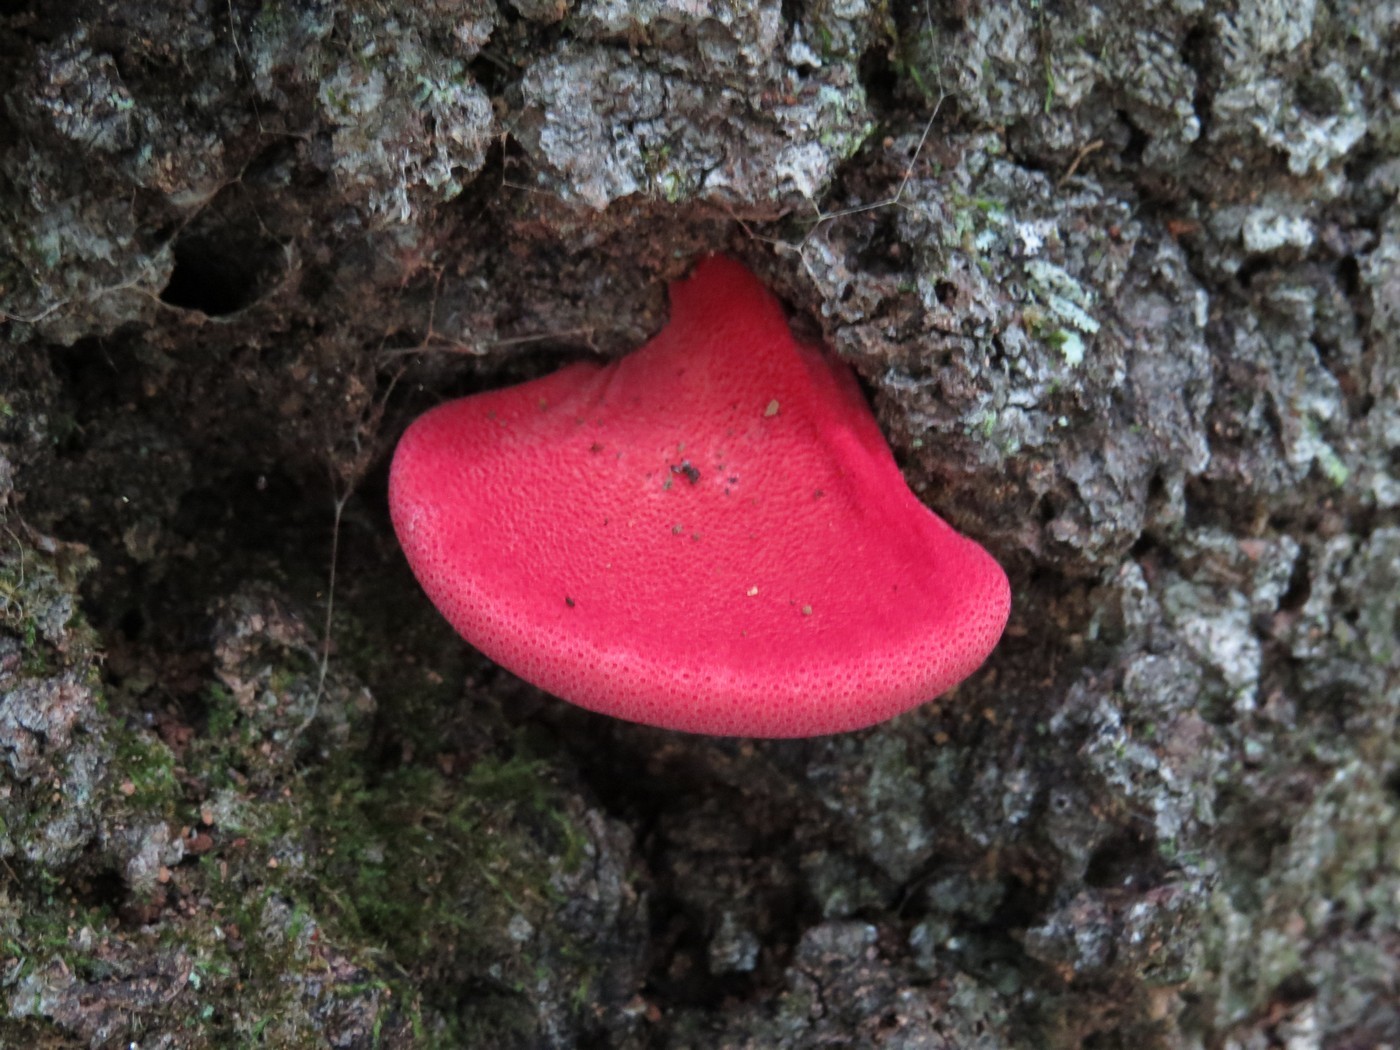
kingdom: Fungi
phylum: Basidiomycota
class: Agaricomycetes
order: Agaricales
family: Fistulinaceae
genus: Fistulina
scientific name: Fistulina hepatica
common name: Beef-steak fungus
